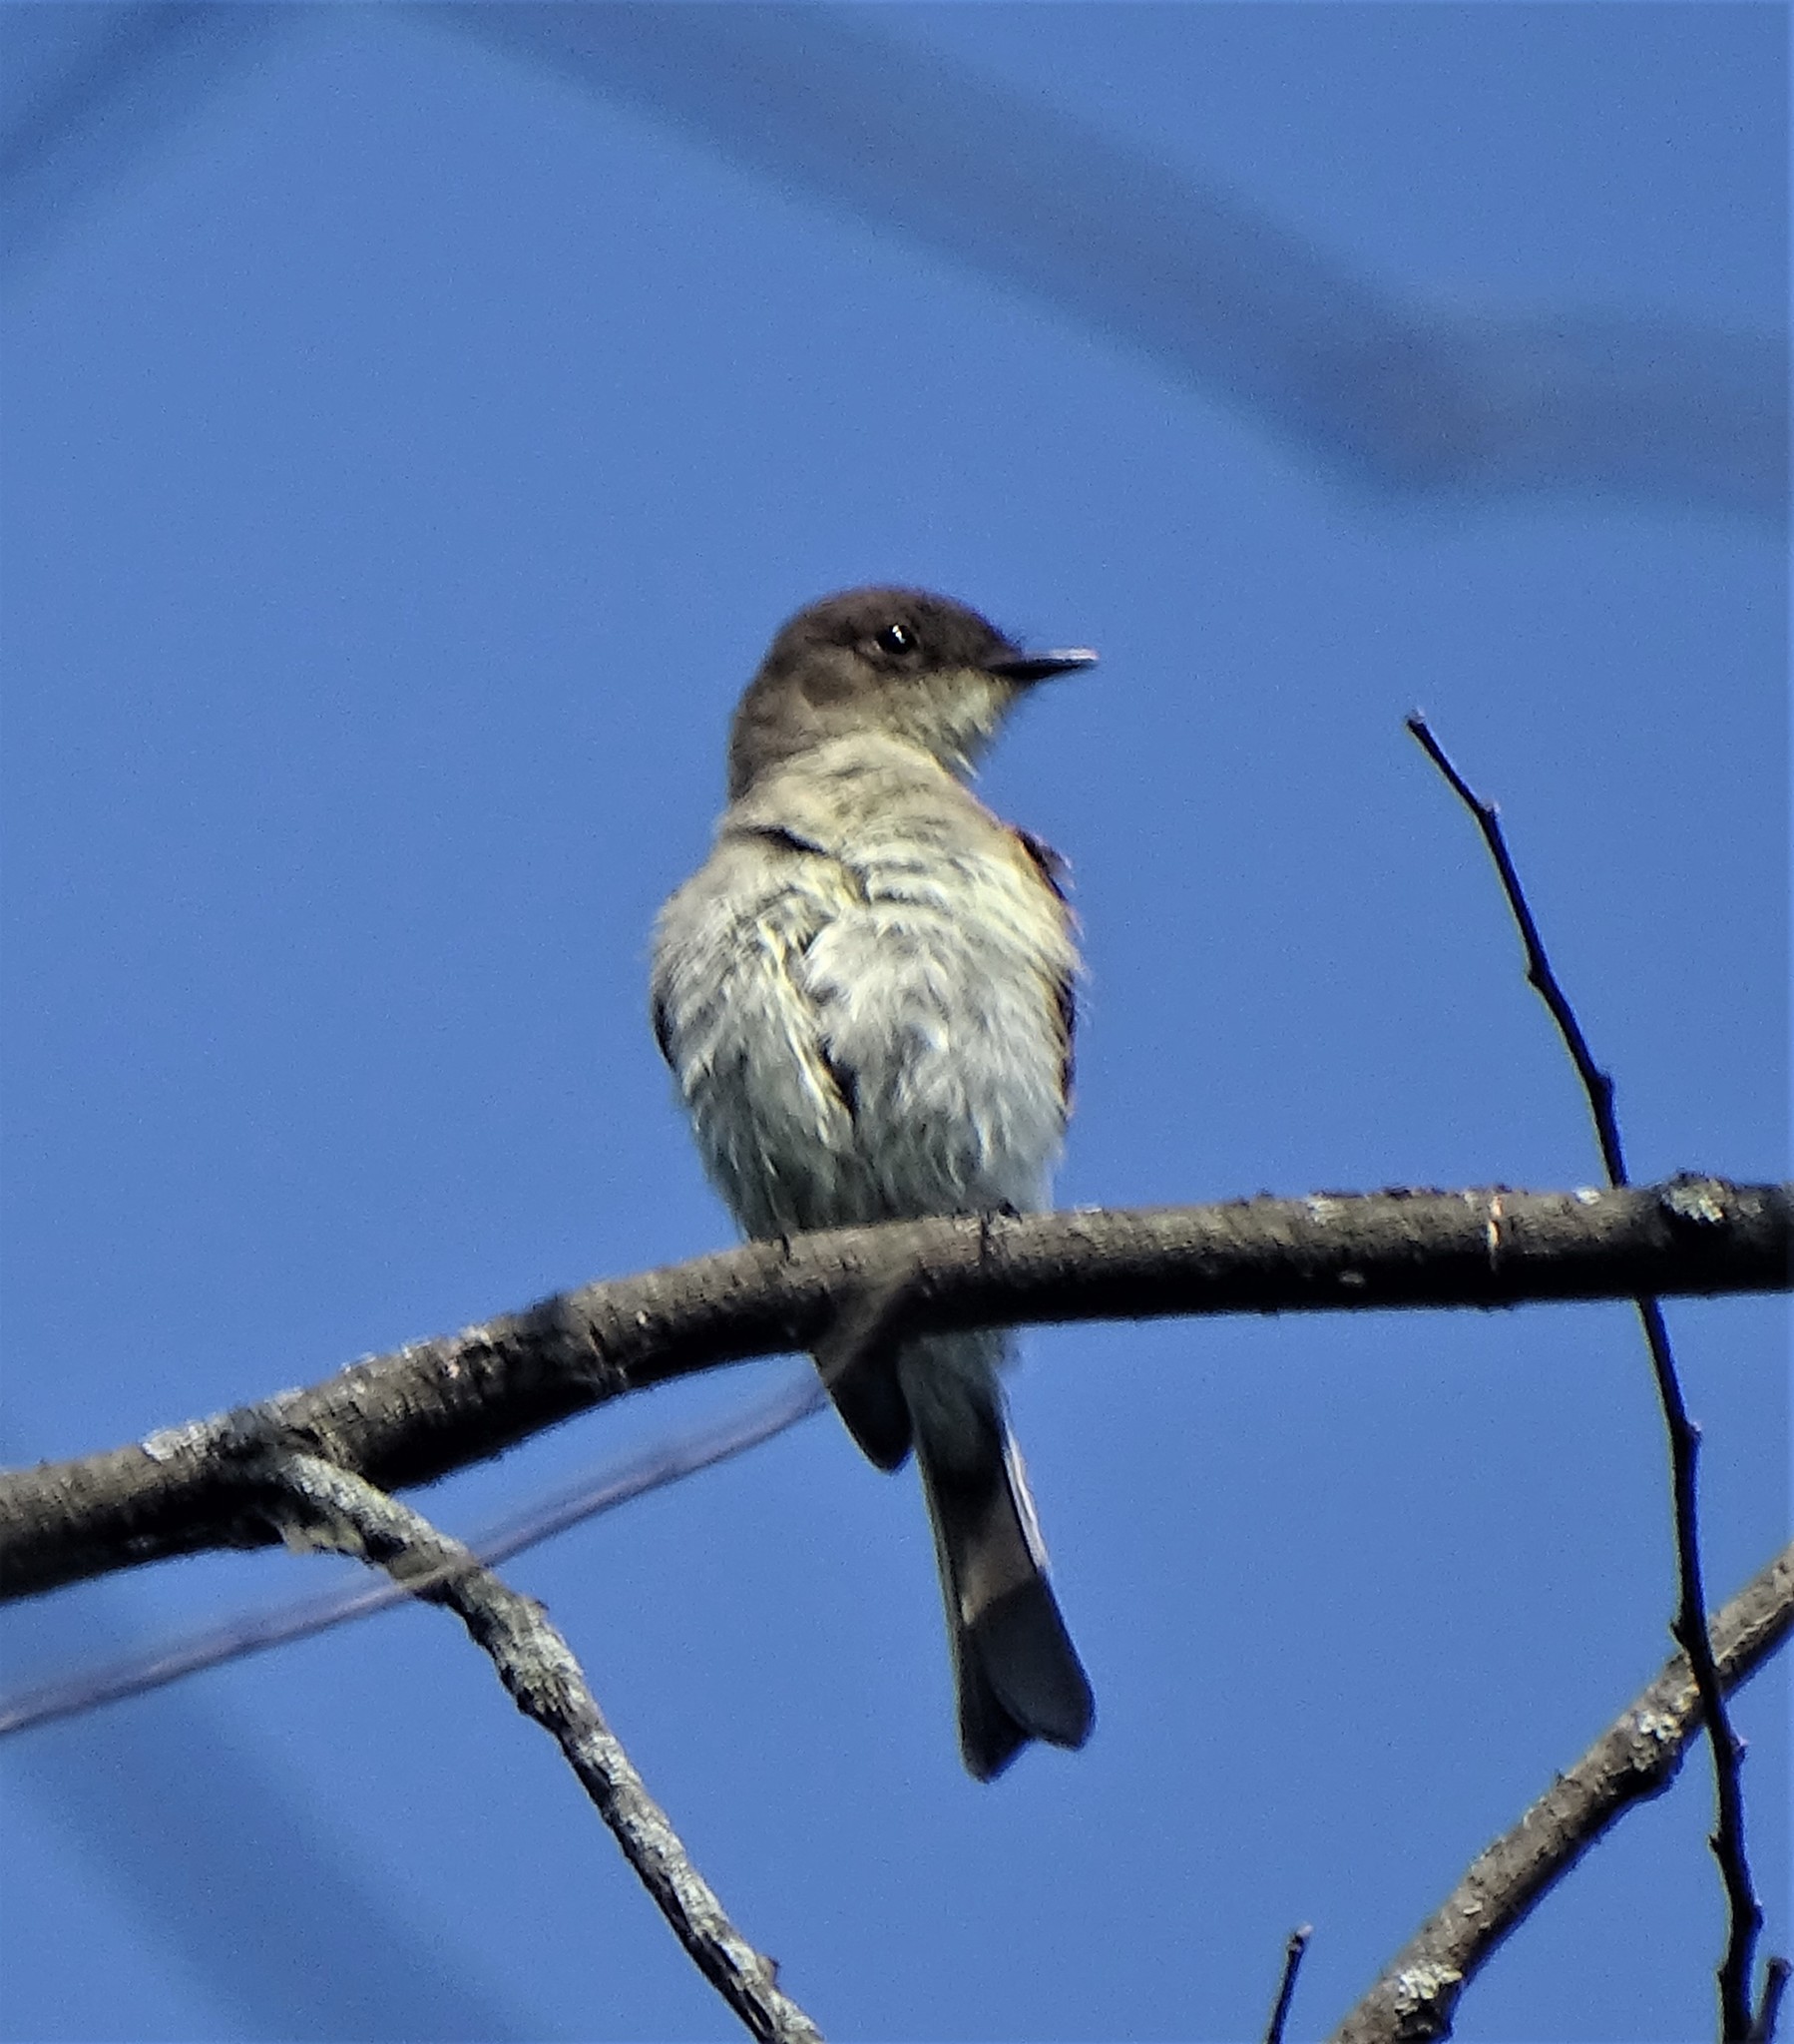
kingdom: Animalia
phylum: Chordata
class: Aves
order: Passeriformes
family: Tyrannidae
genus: Sayornis
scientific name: Sayornis phoebe
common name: Eastern phoebe
